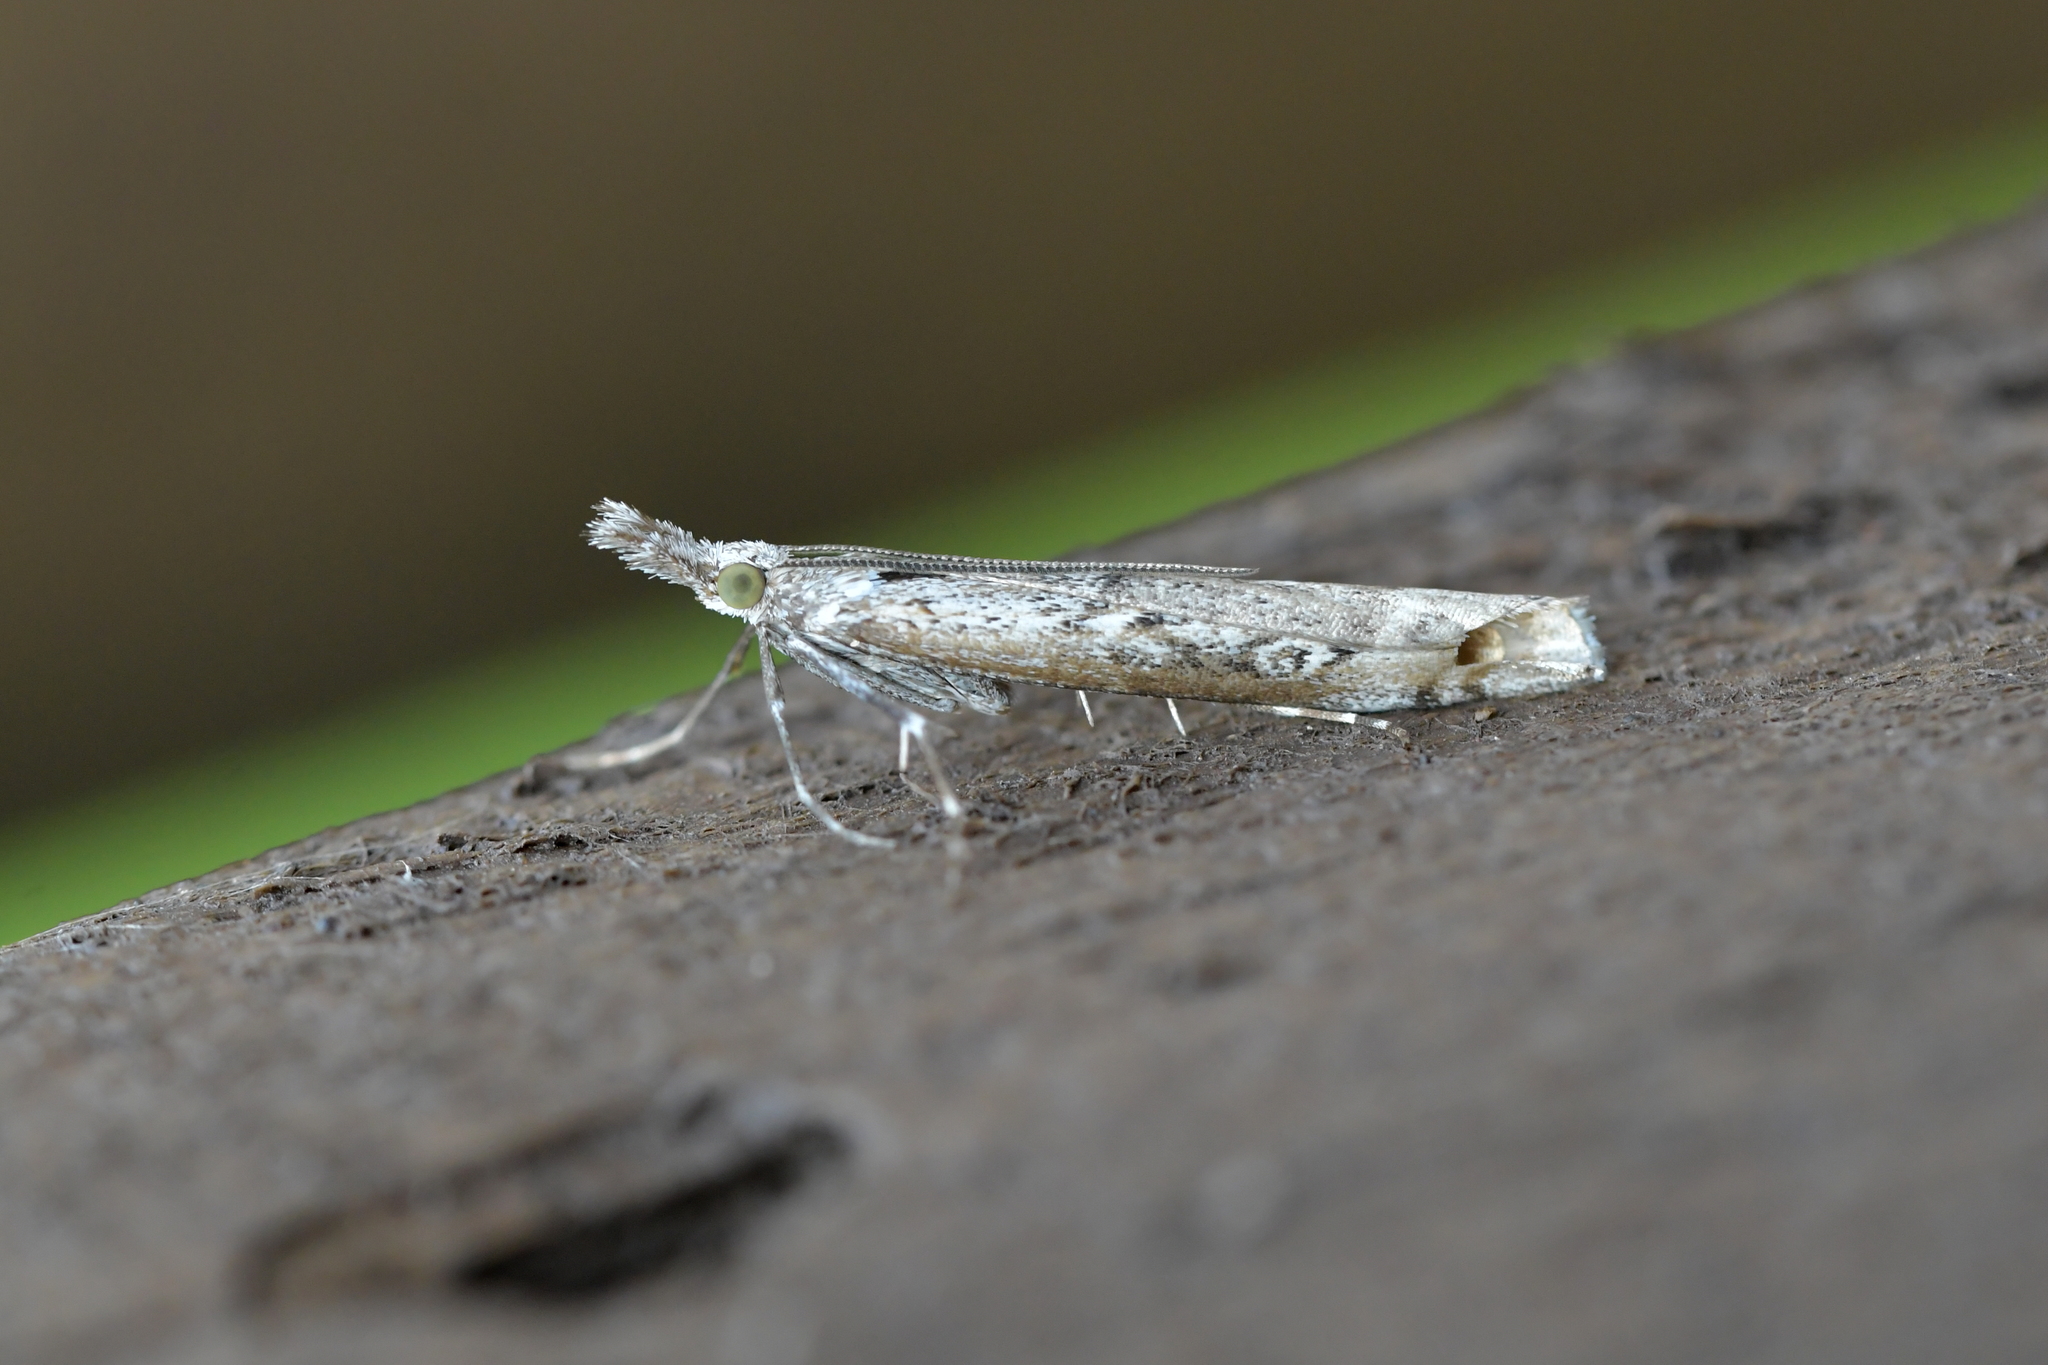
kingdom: Animalia
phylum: Arthropoda
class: Insecta
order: Lepidoptera
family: Crambidae
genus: Orocrambus
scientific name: Orocrambus cyclopicus
